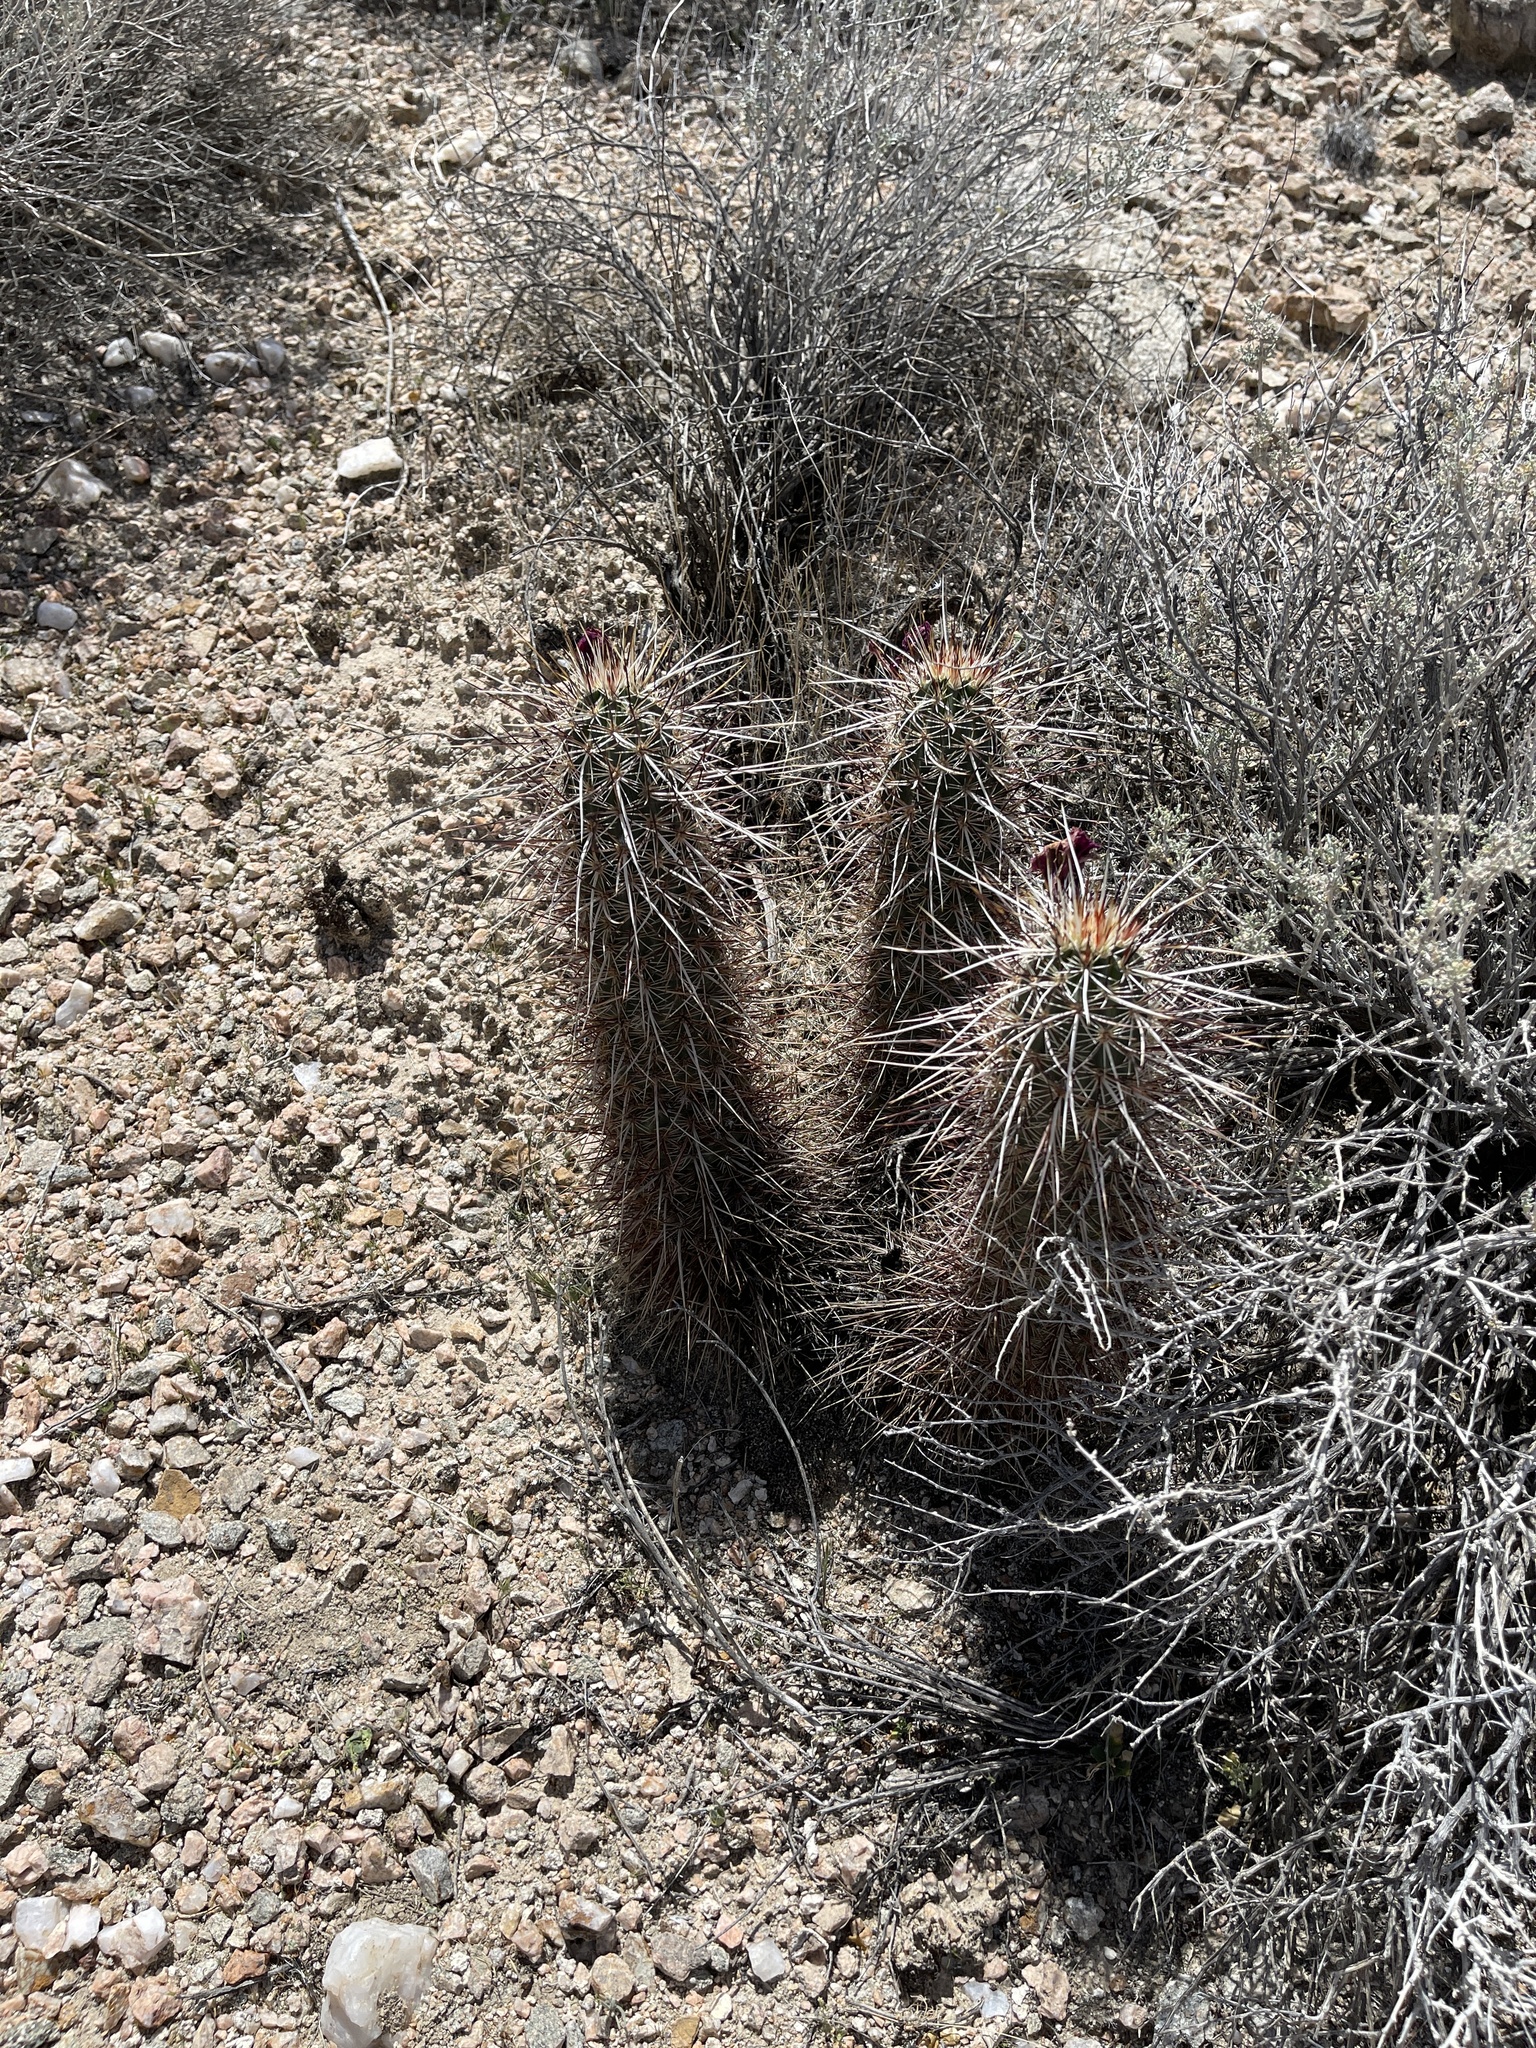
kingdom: Plantae
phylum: Tracheophyta
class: Magnoliopsida
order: Caryophyllales
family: Cactaceae
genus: Echinocereus
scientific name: Echinocereus engelmannii
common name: Engelmann's hedgehog cactus
